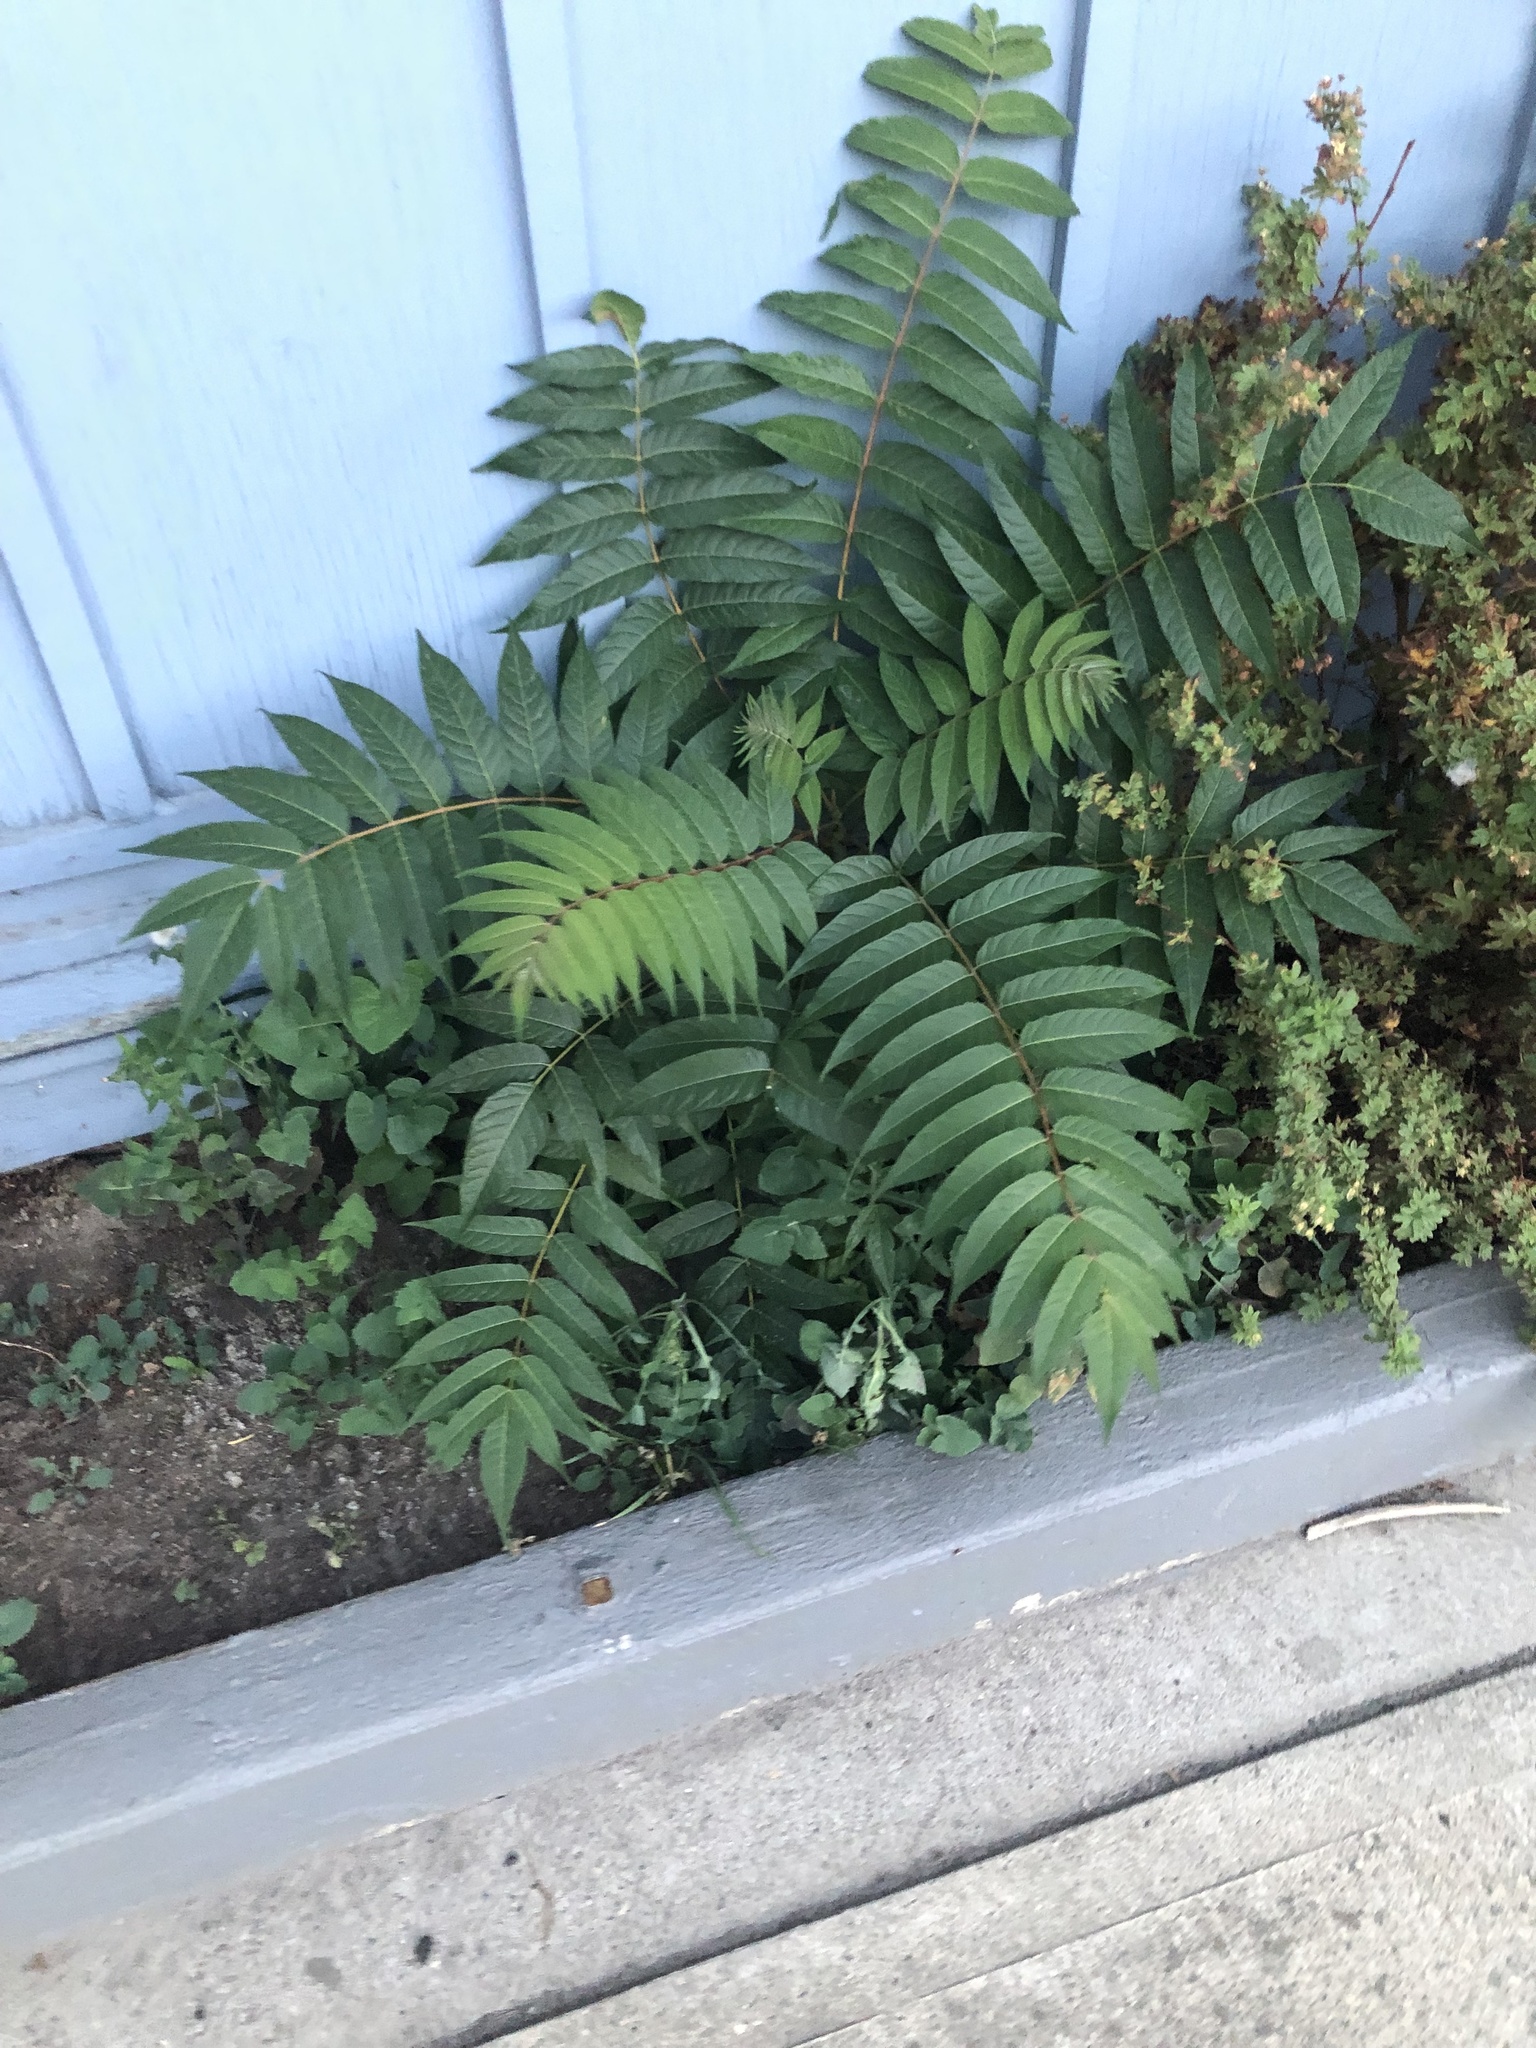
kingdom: Plantae
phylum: Tracheophyta
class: Magnoliopsida
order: Sapindales
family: Simaroubaceae
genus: Ailanthus
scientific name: Ailanthus altissima
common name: Tree-of-heaven
